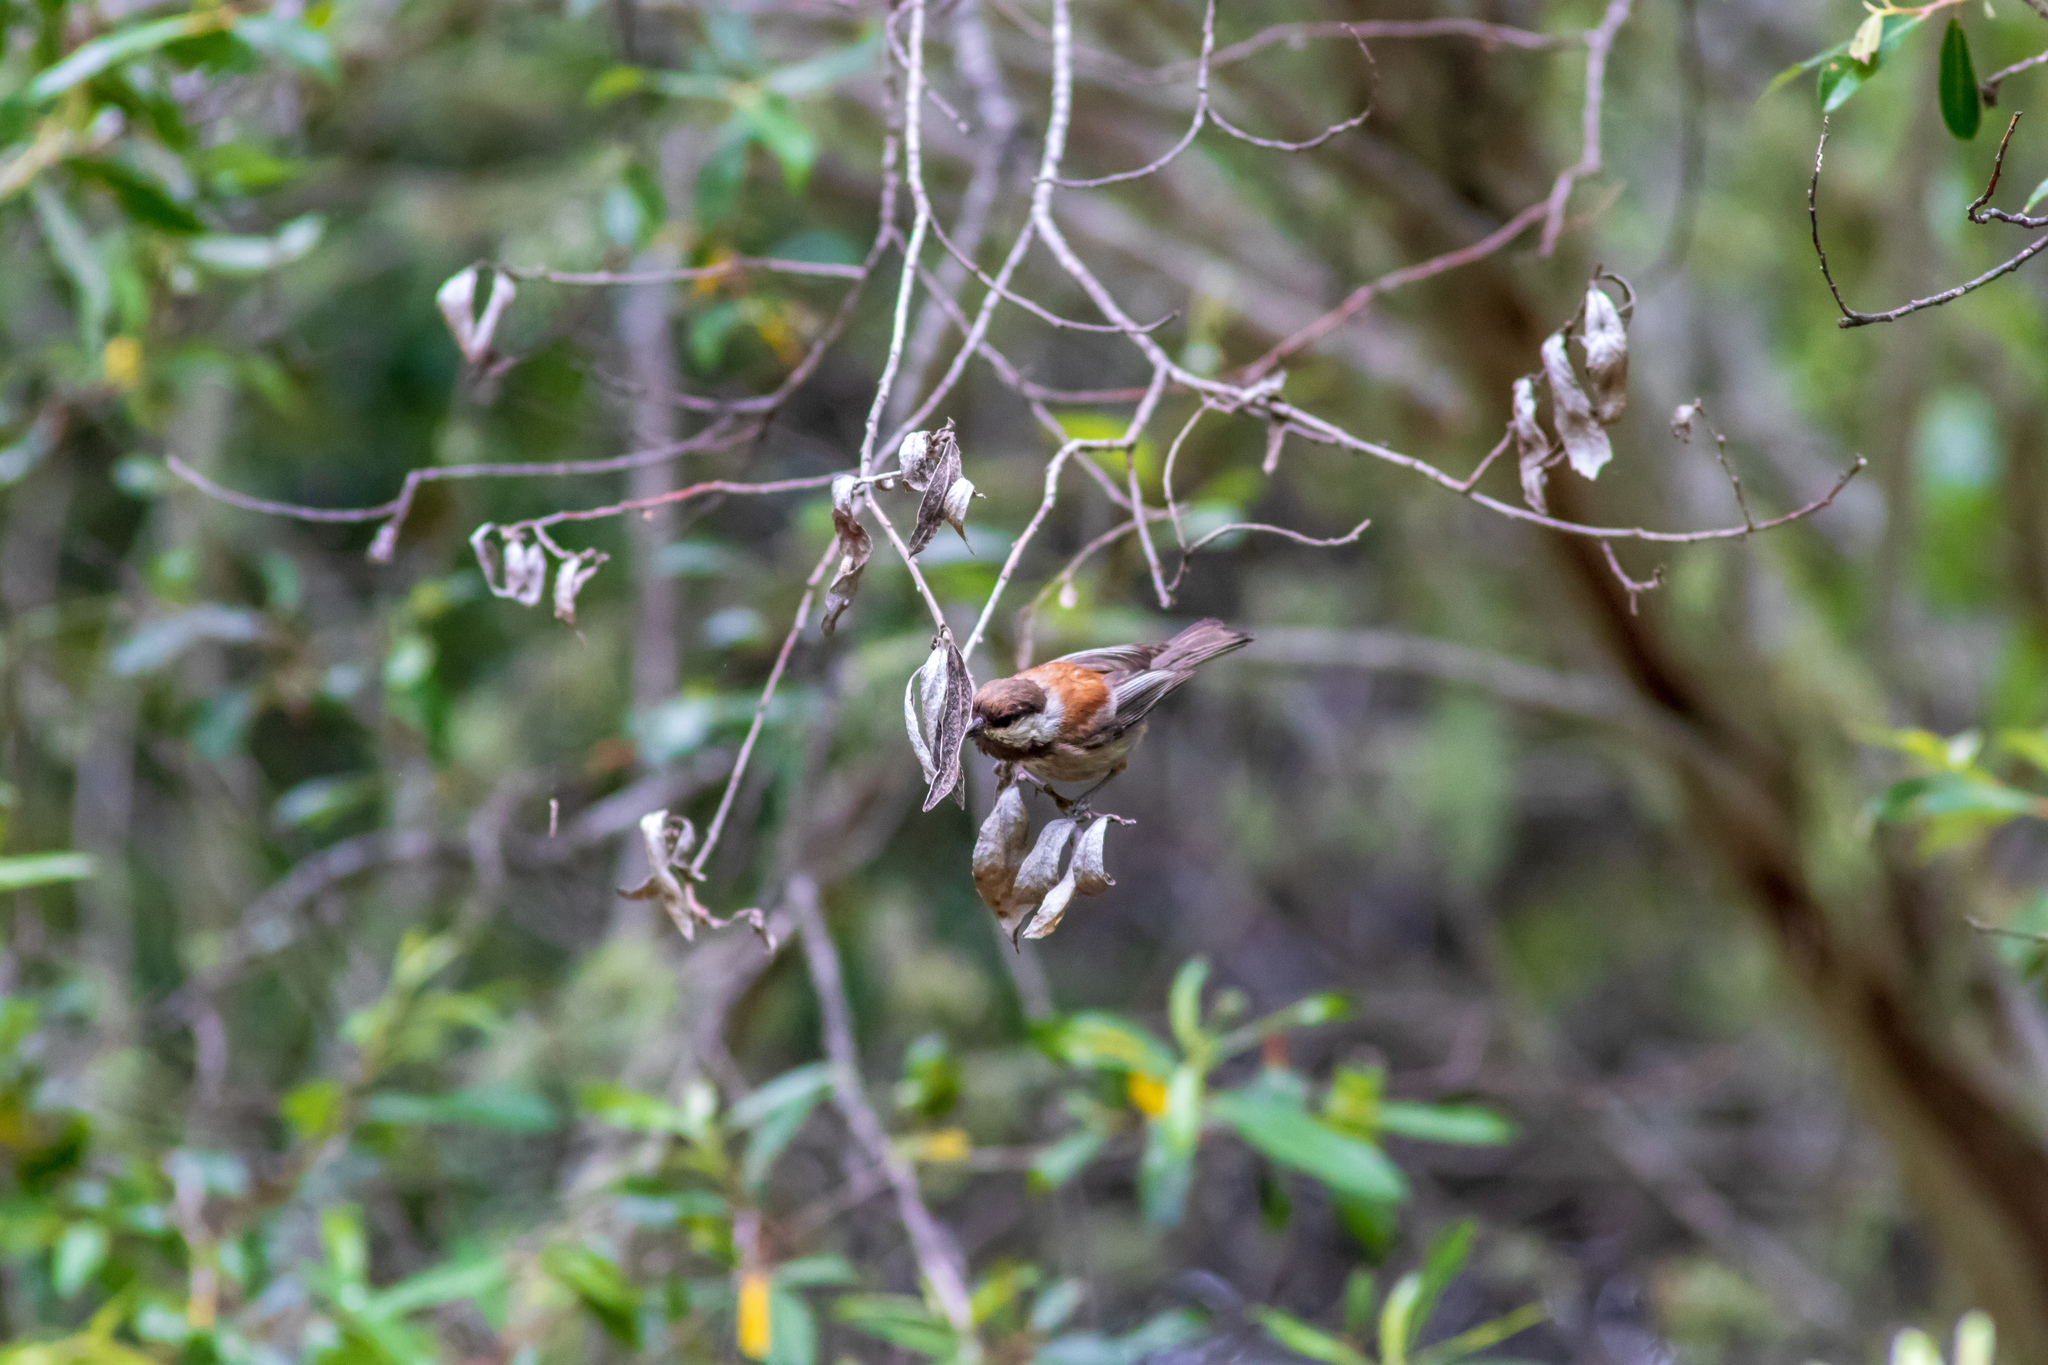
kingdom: Animalia
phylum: Chordata
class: Aves
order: Passeriformes
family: Paridae
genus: Poecile
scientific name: Poecile rufescens
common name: Chestnut-backed chickadee
